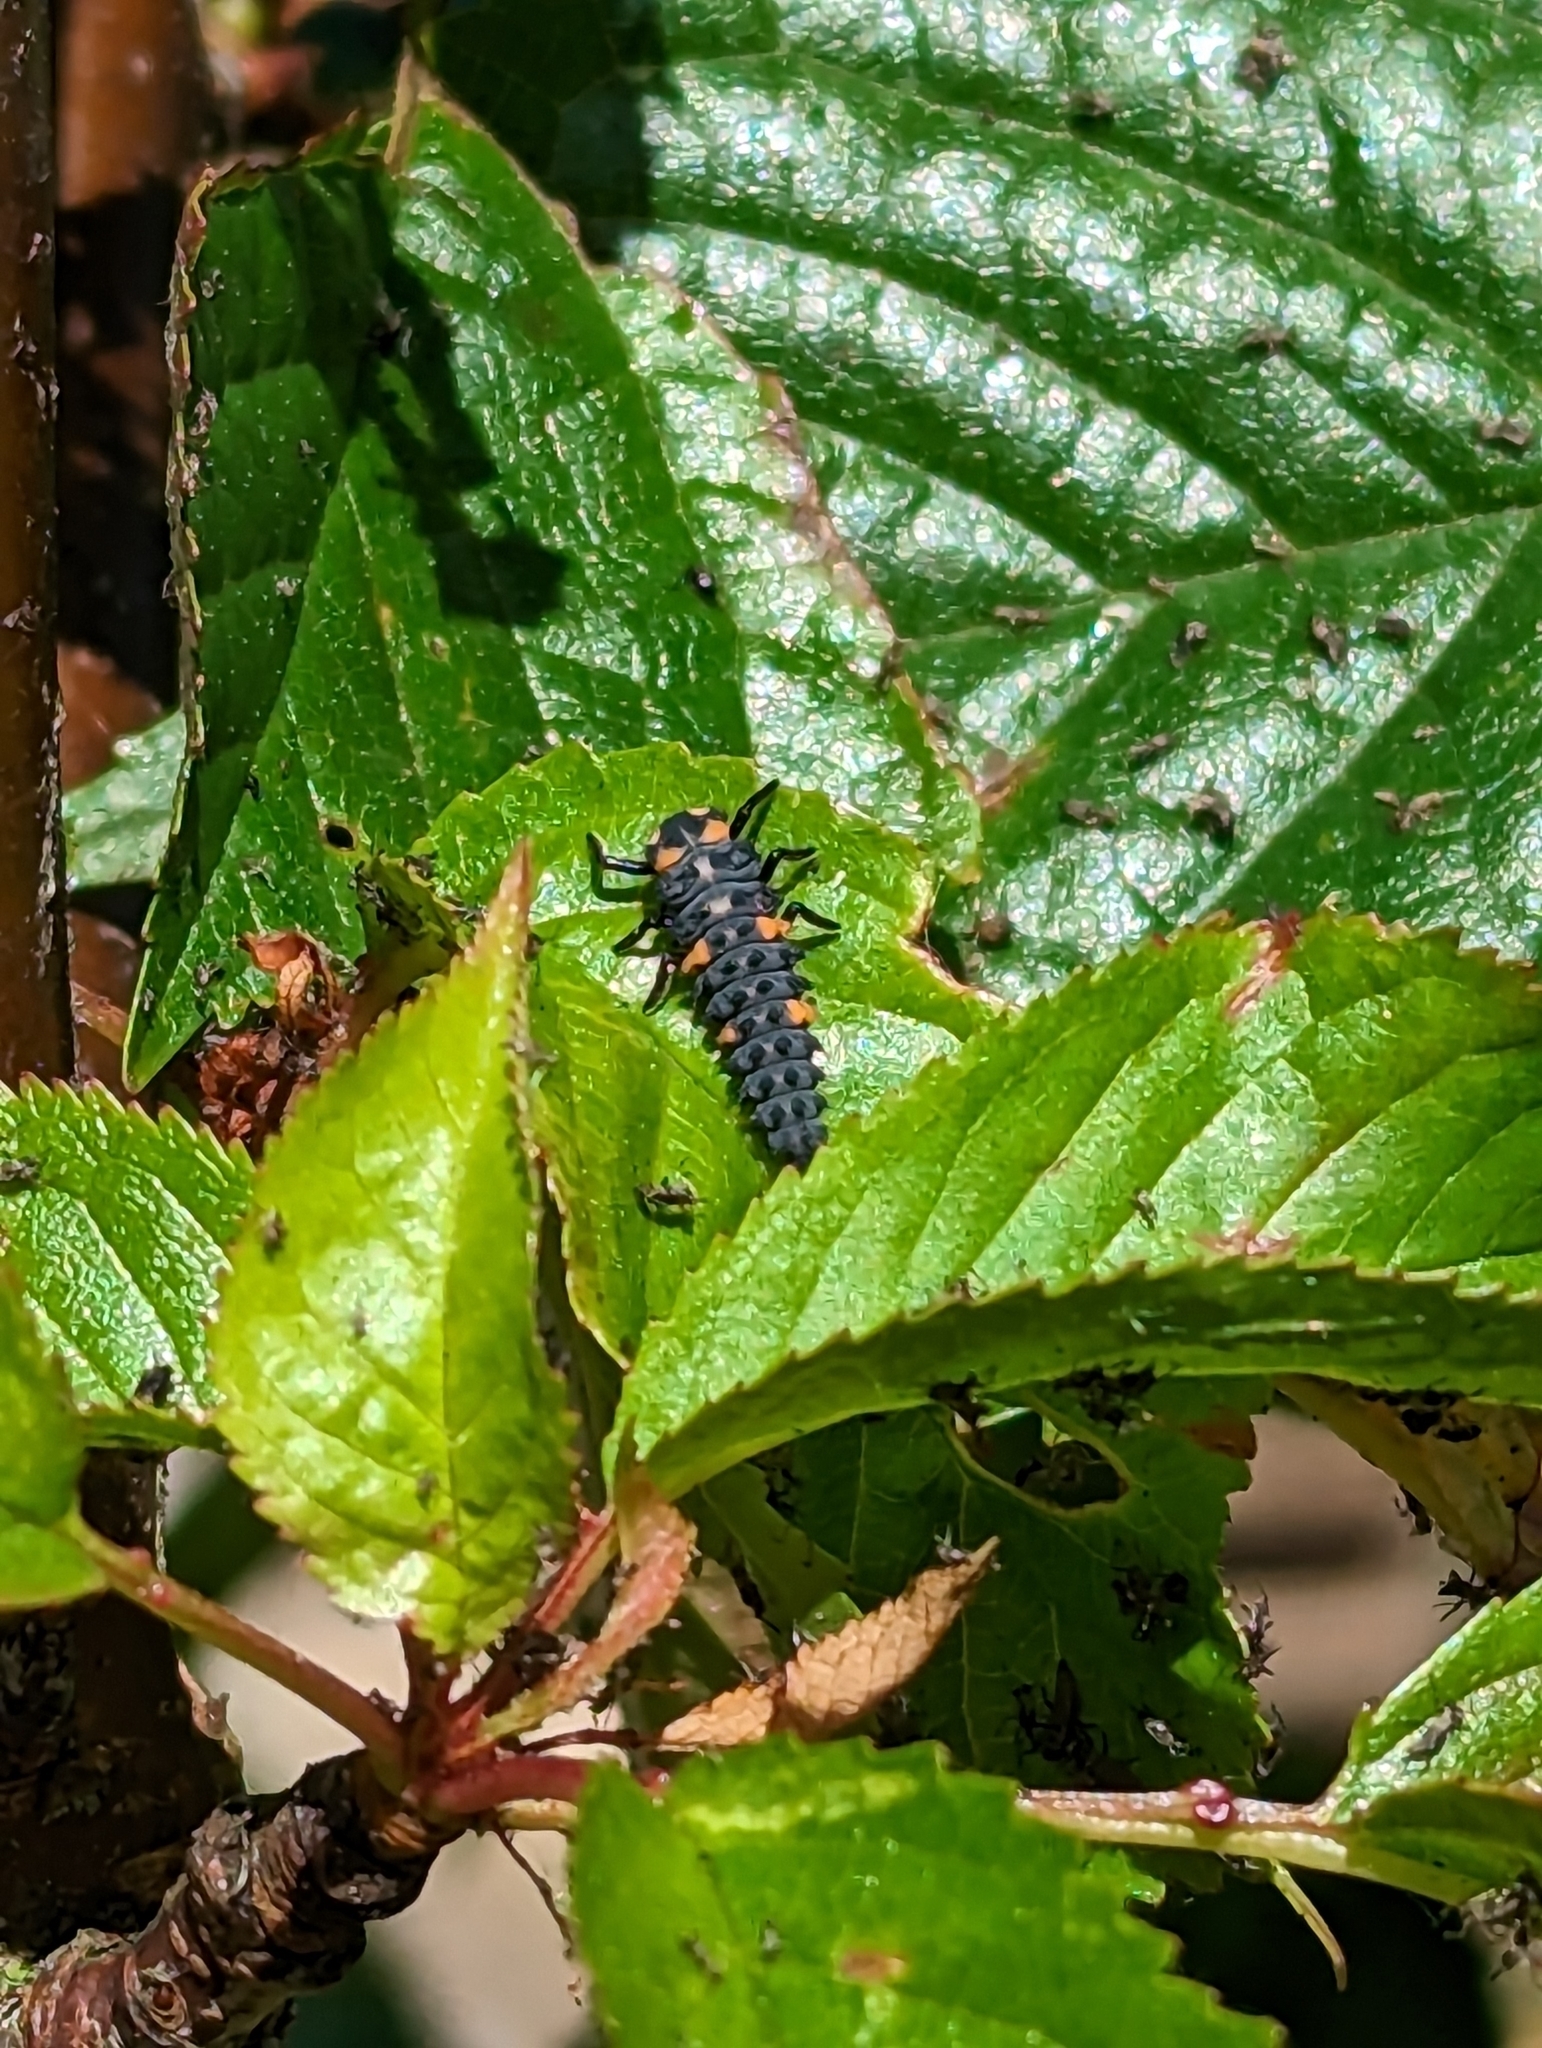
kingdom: Animalia
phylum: Arthropoda
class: Insecta
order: Coleoptera
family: Coccinellidae
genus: Coccinella
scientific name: Coccinella septempunctata
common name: Sevenspotted lady beetle
